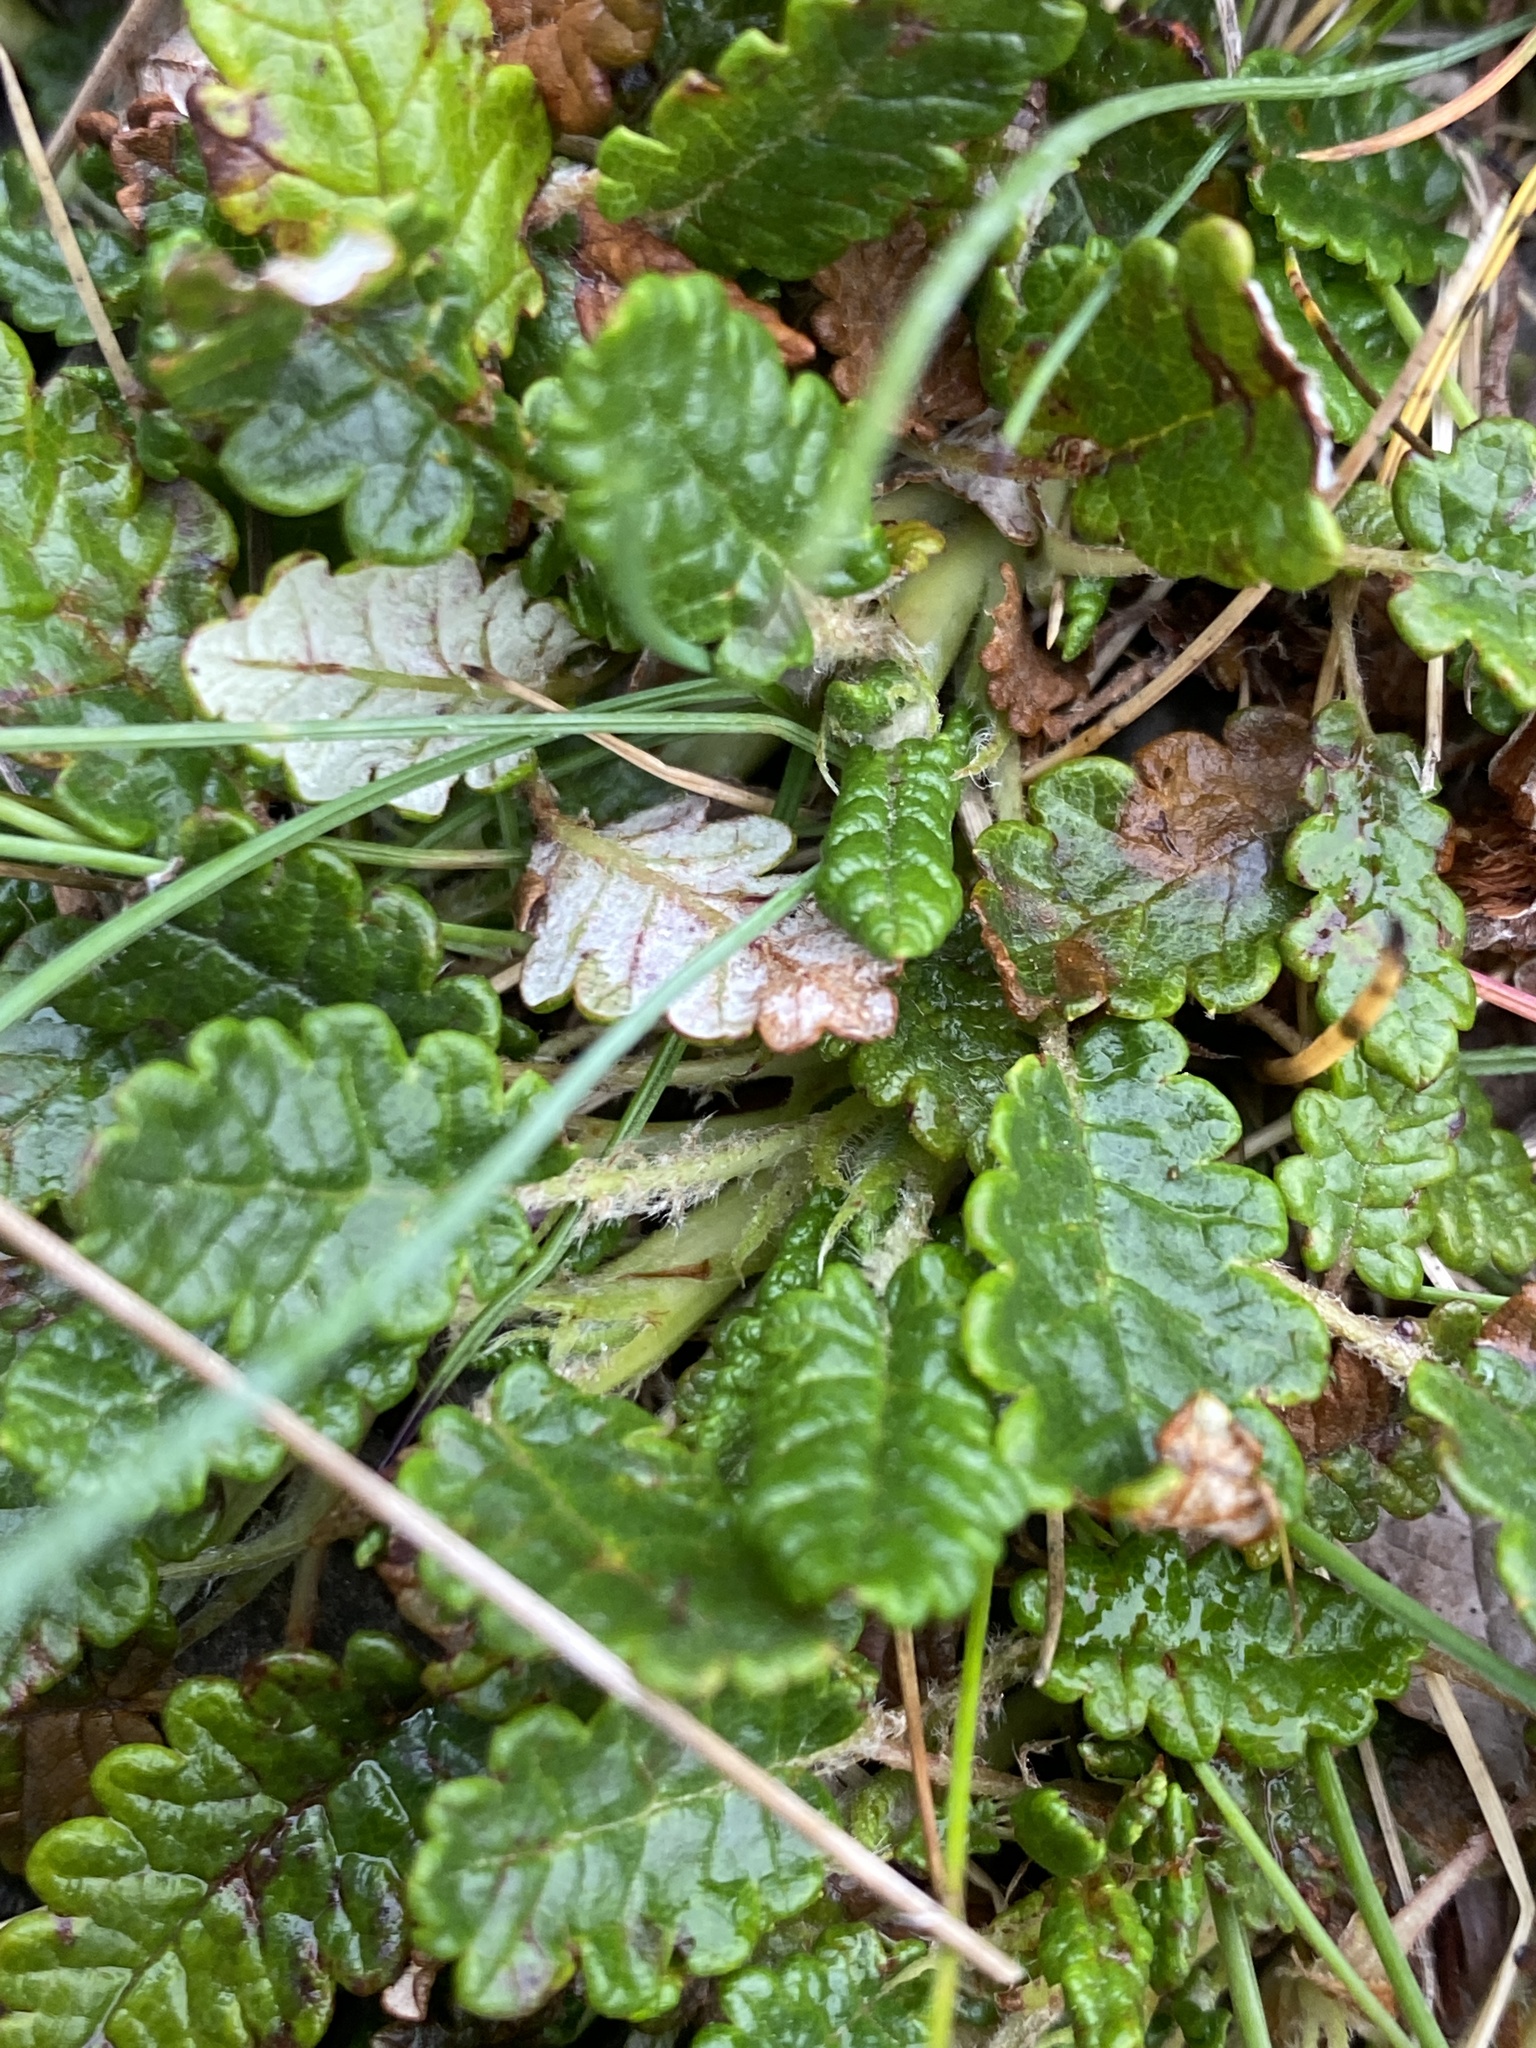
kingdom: Plantae
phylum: Tracheophyta
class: Magnoliopsida
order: Rosales
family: Rosaceae
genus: Dryas
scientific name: Dryas octopetala
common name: Eight-petal mountain-avens
